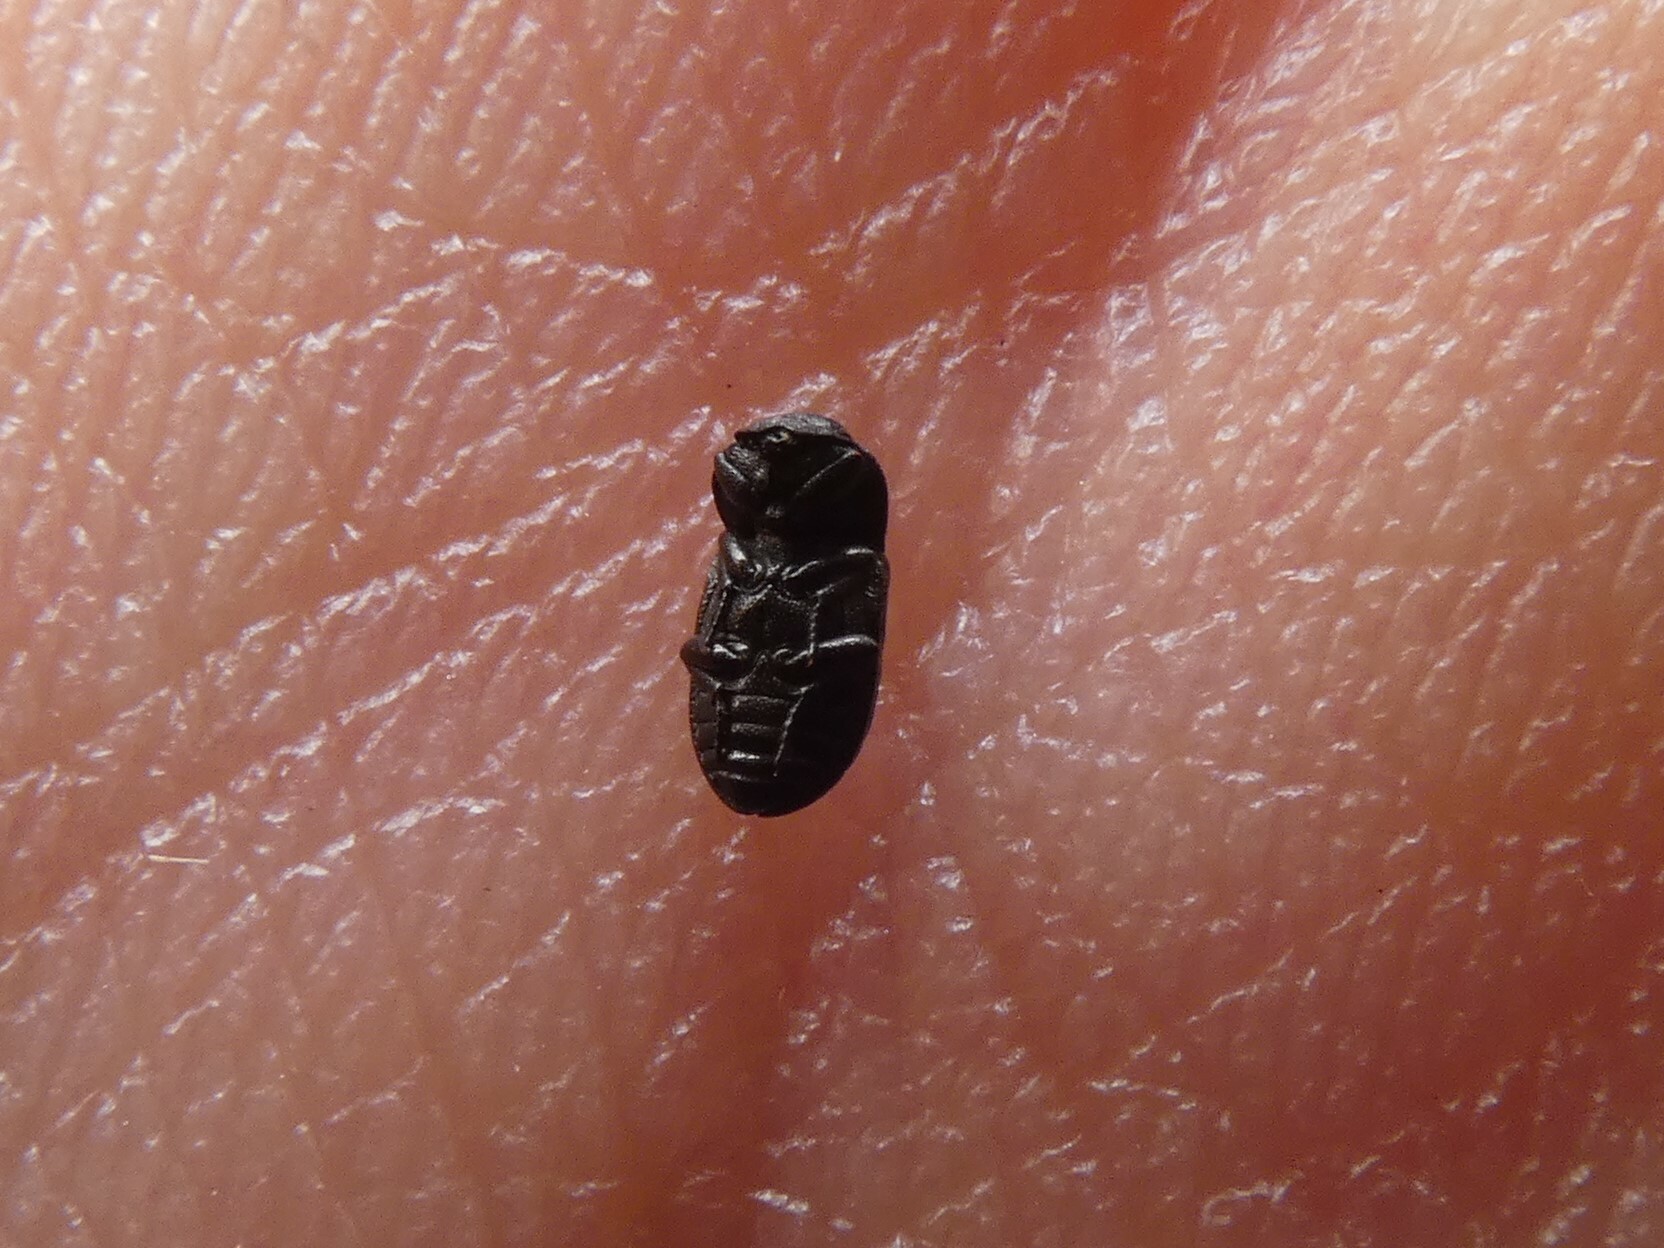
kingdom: Animalia
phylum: Arthropoda
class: Insecta
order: Coleoptera
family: Tenebrionidae
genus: Melanimon
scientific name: Melanimon tibialis
